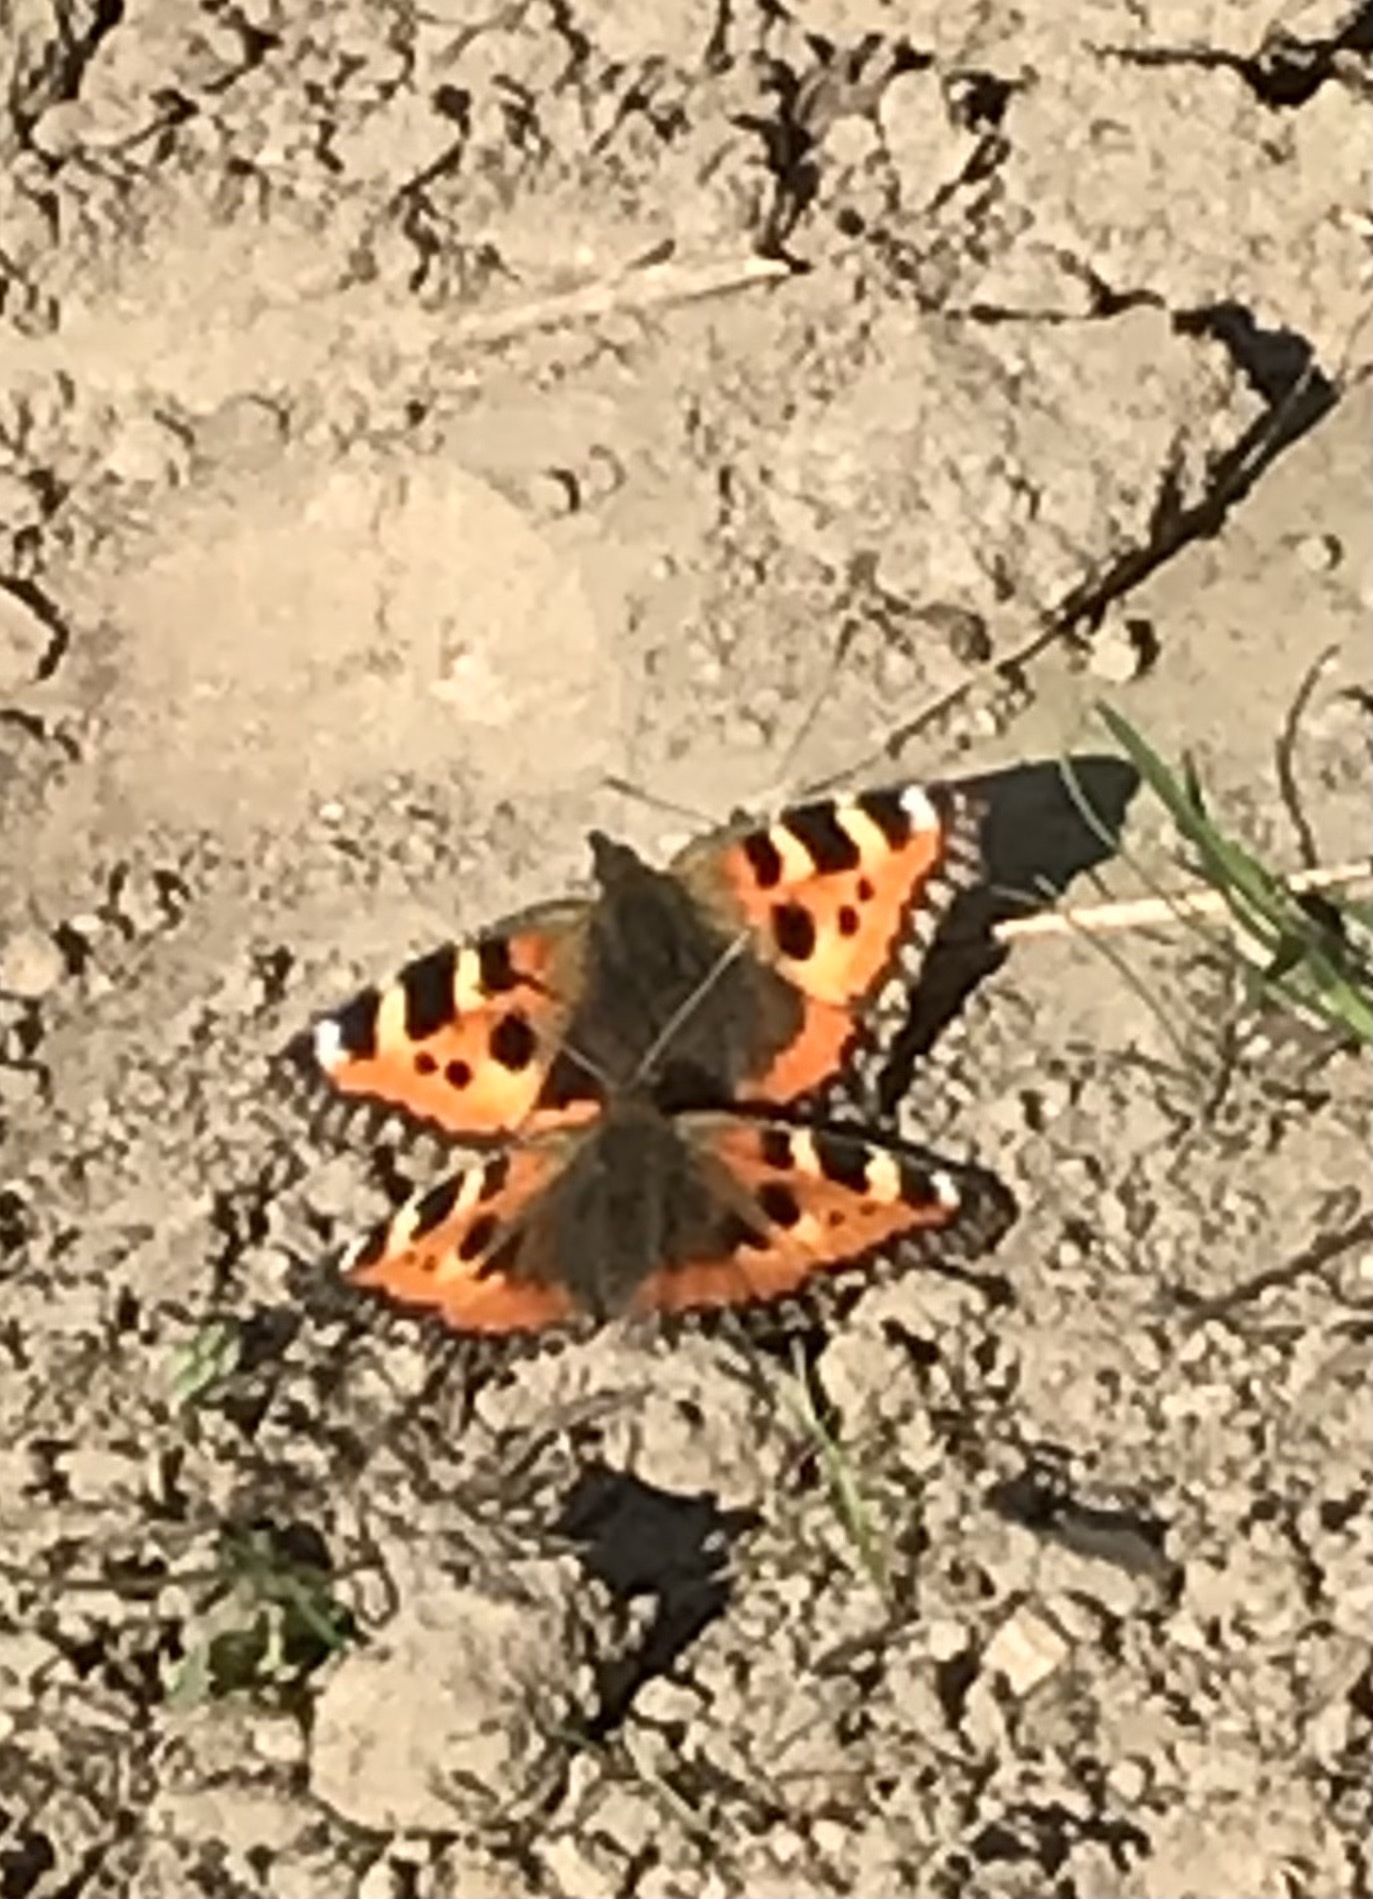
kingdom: Animalia
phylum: Arthropoda
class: Insecta
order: Lepidoptera
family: Nymphalidae
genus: Aglais
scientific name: Aglais urticae
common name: Small tortoiseshell
